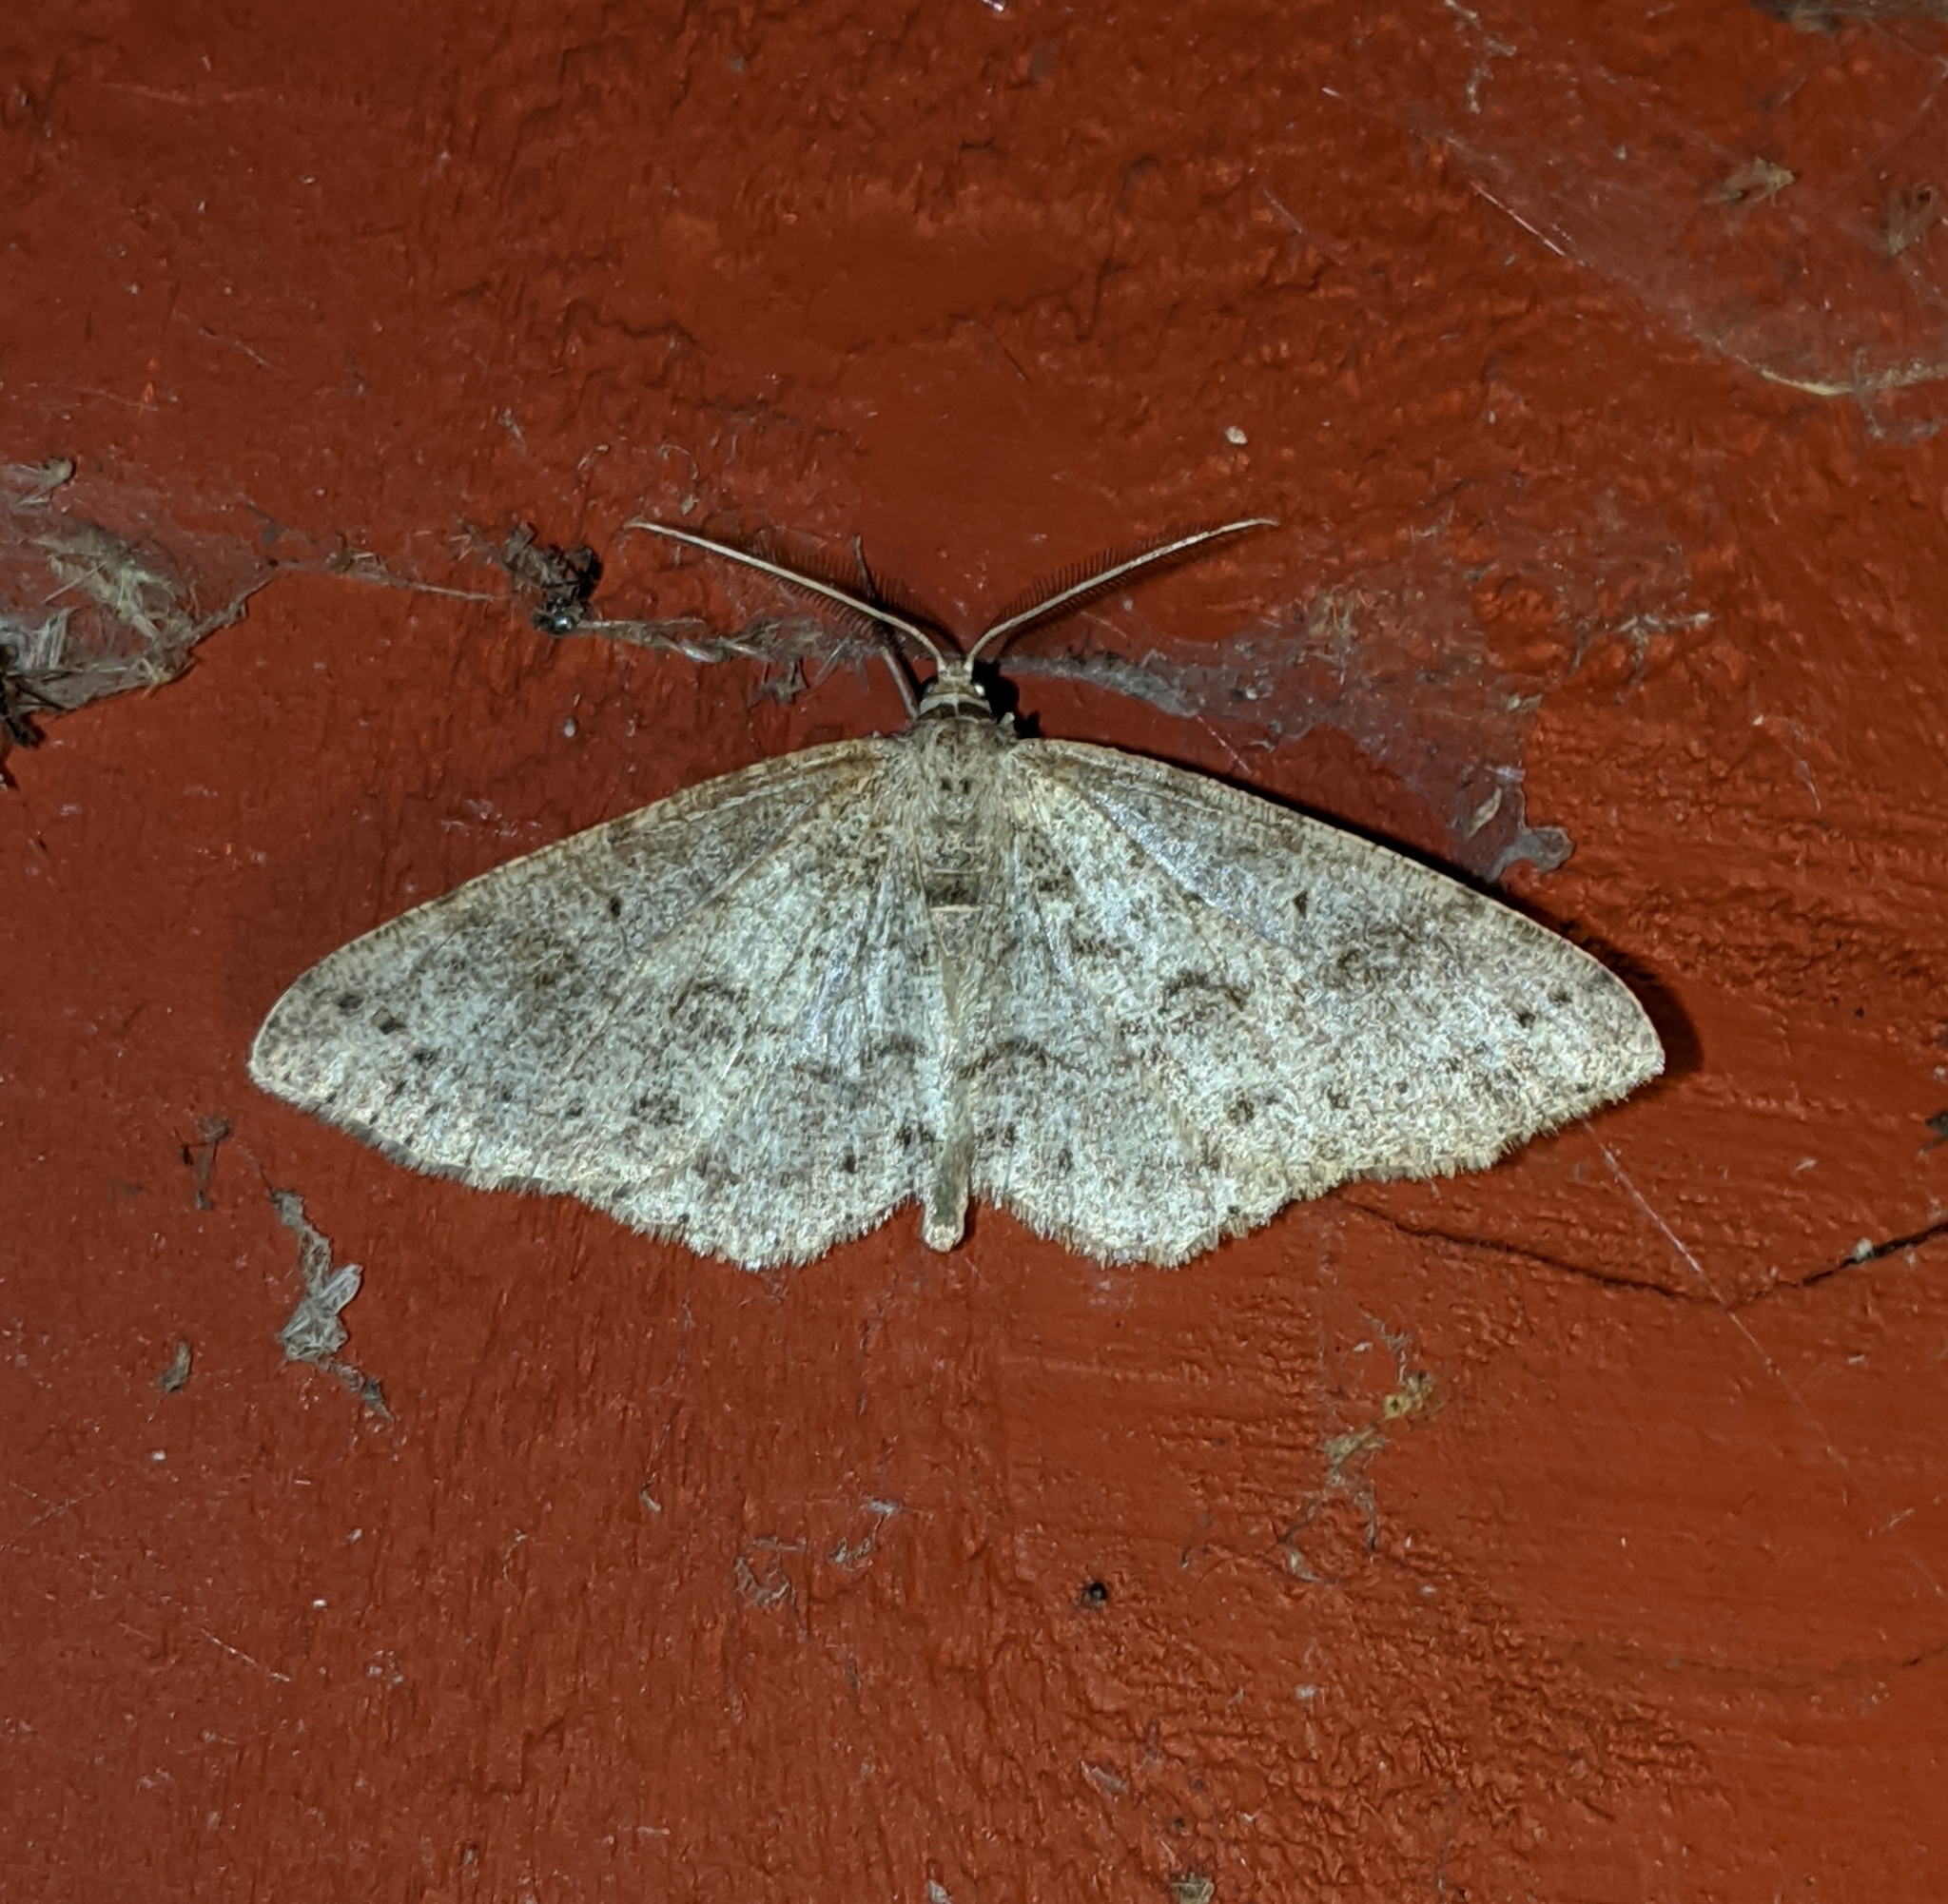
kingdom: Animalia
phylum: Arthropoda
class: Insecta
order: Lepidoptera
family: Geometridae
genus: Melanolophia
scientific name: Melanolophia imitata
